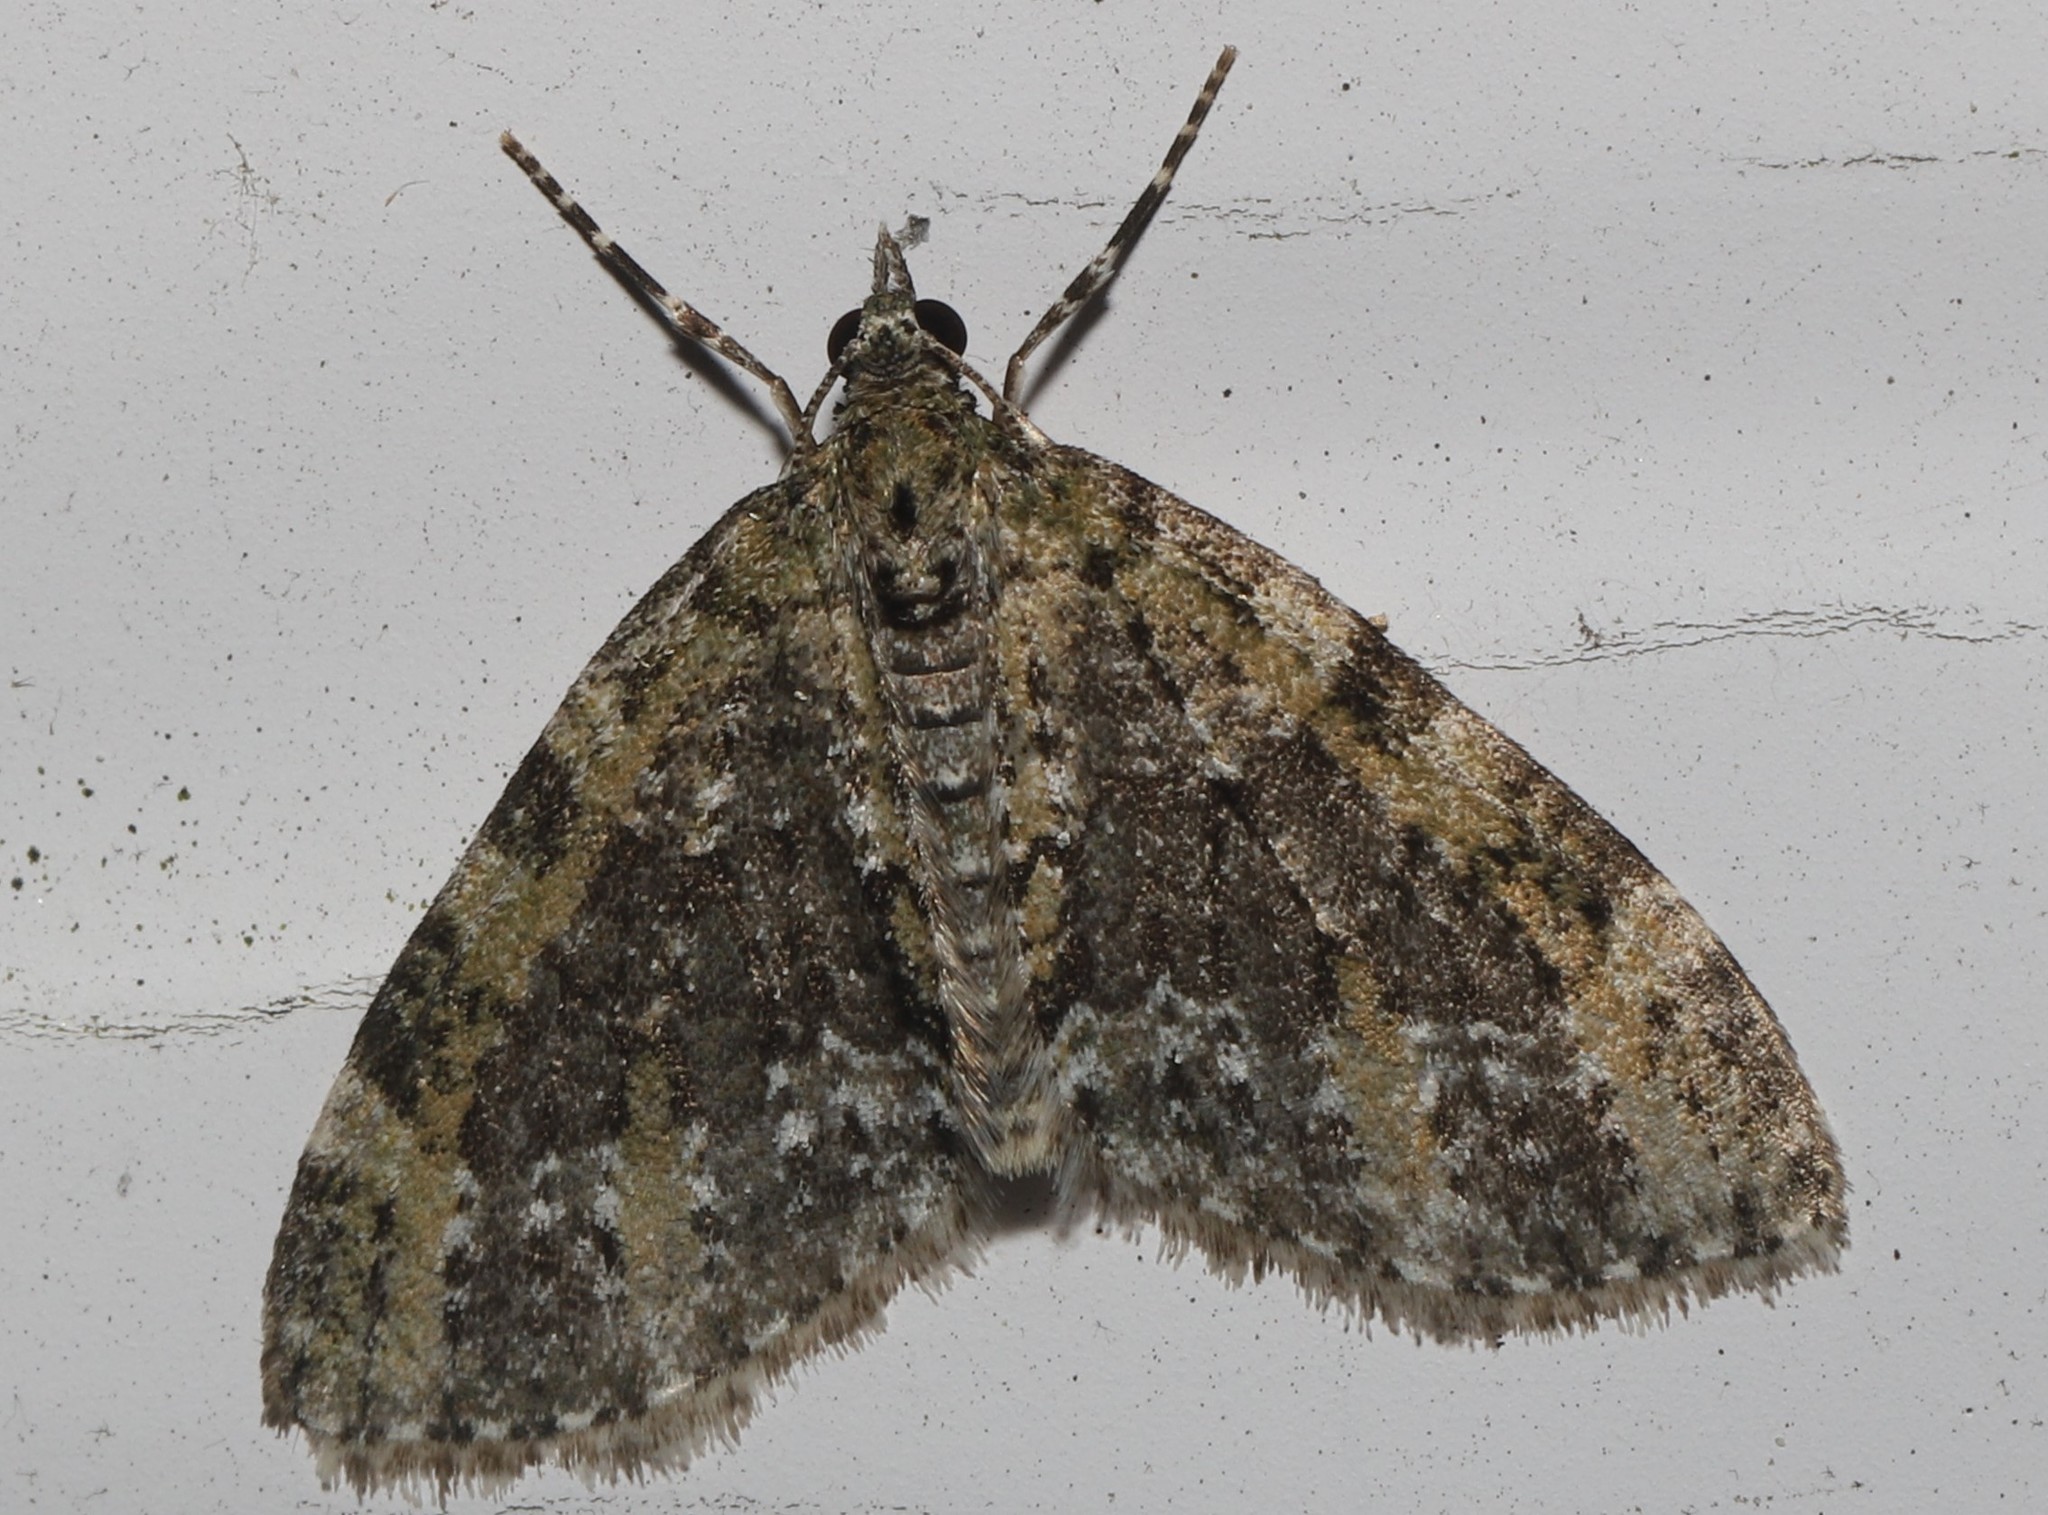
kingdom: Animalia
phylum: Arthropoda
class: Insecta
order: Lepidoptera
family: Geometridae
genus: Acasis
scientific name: Acasis viridata
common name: Olive-and-black carpet moth
